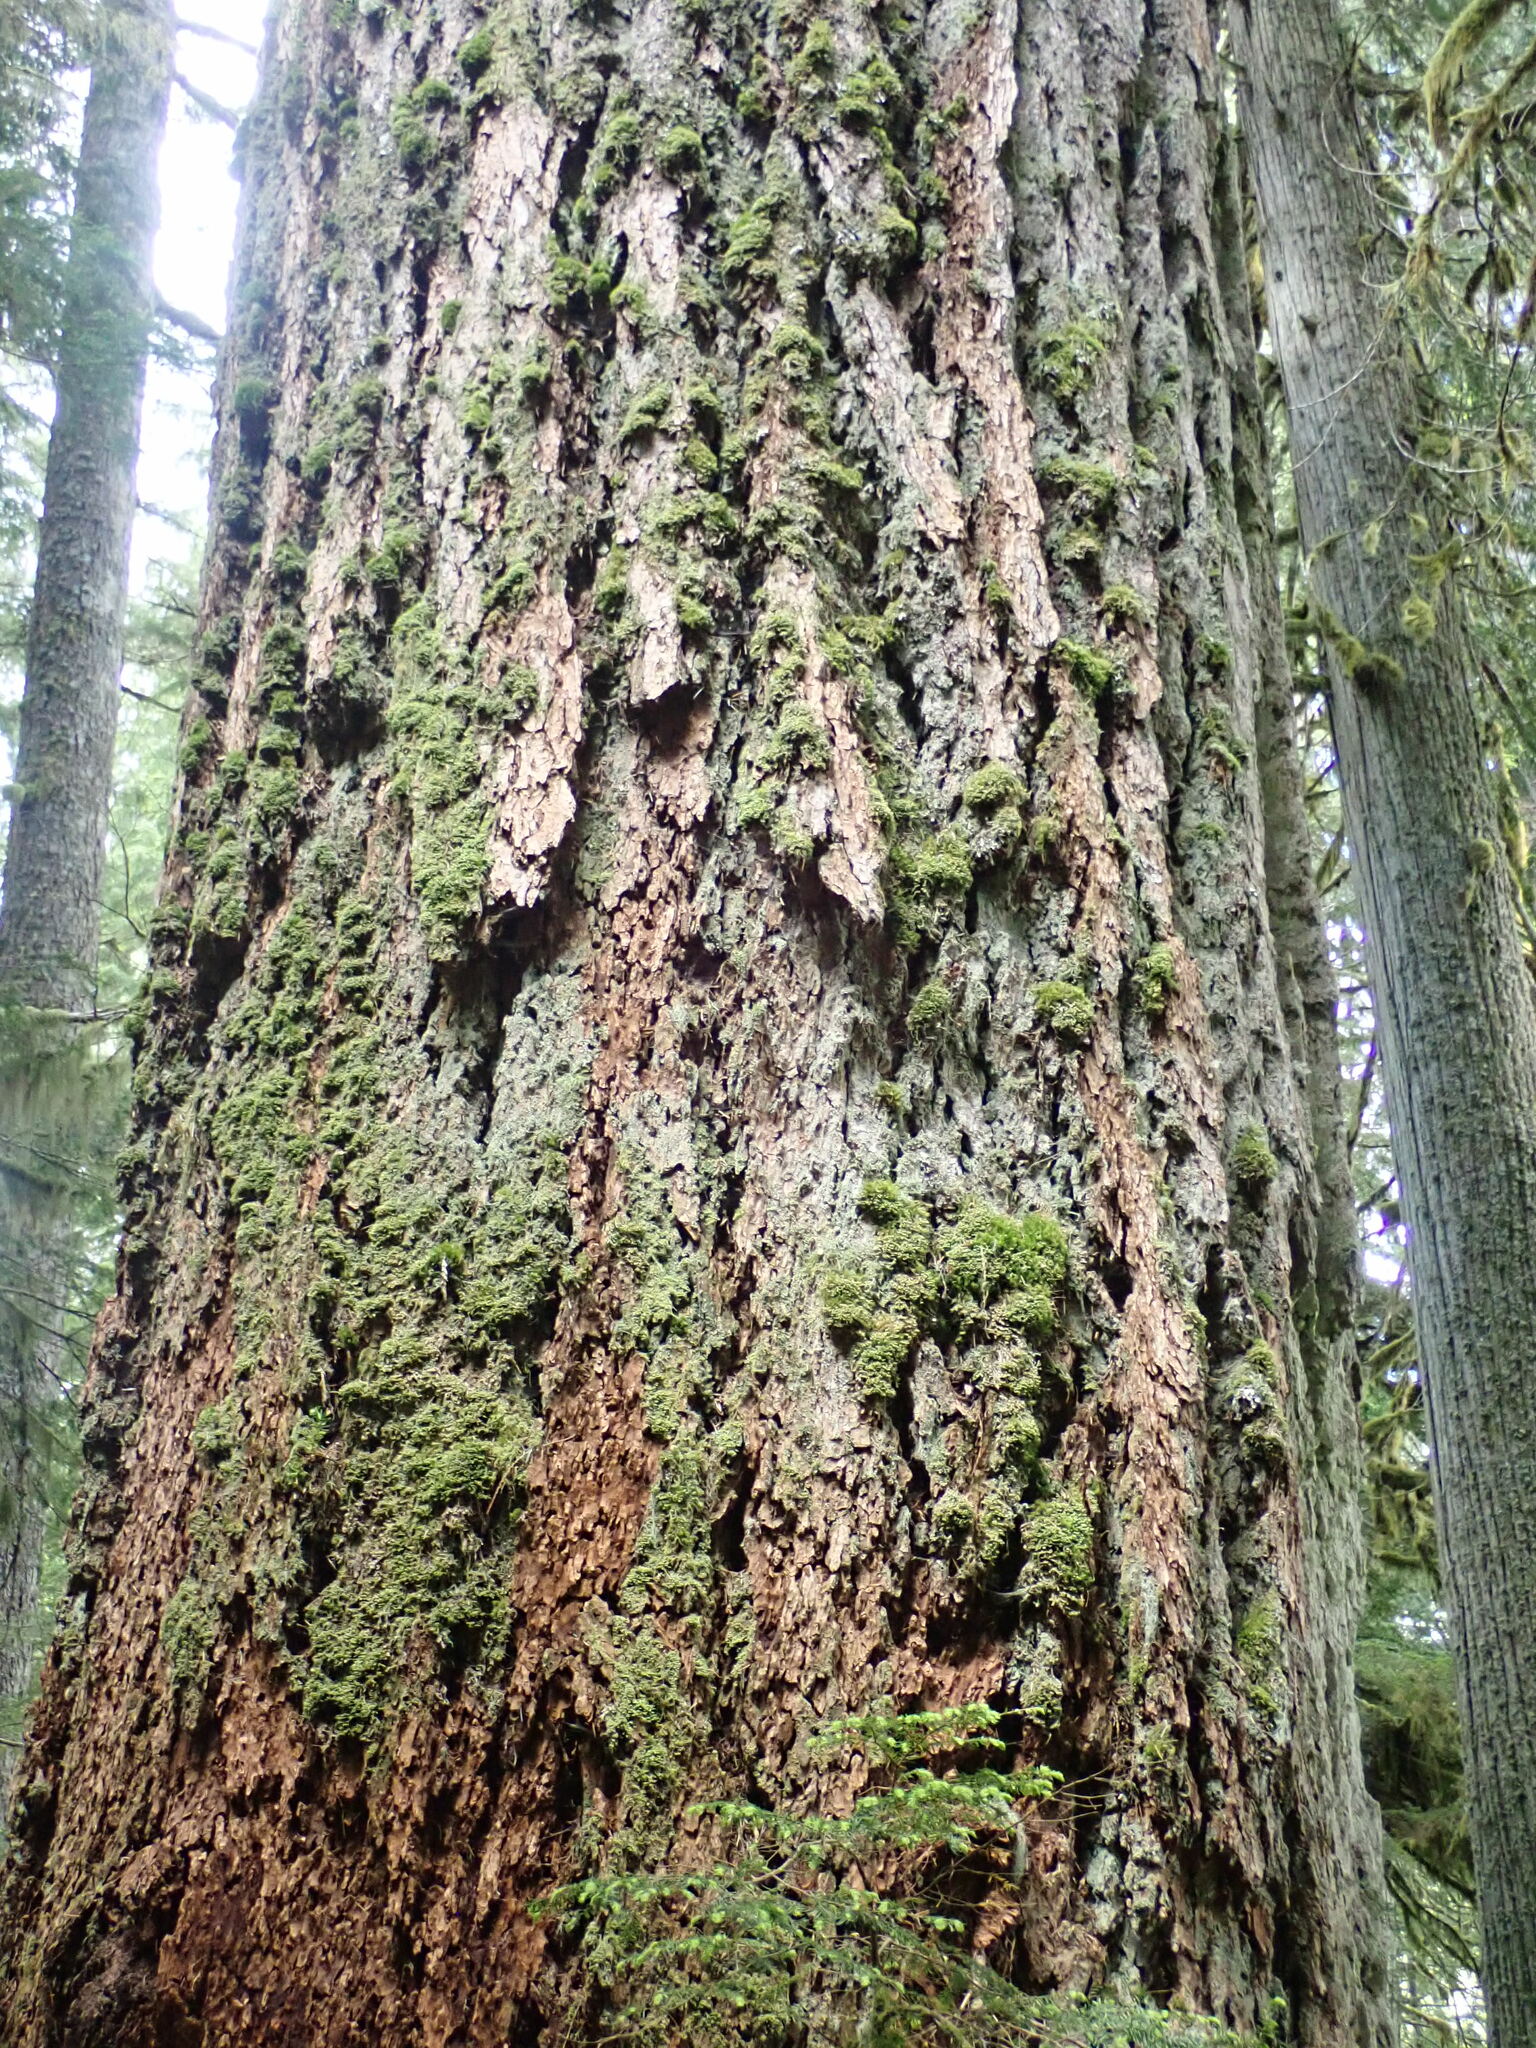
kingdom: Plantae
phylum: Tracheophyta
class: Pinopsida
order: Pinales
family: Pinaceae
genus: Pseudotsuga
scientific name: Pseudotsuga menziesii
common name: Douglas fir
